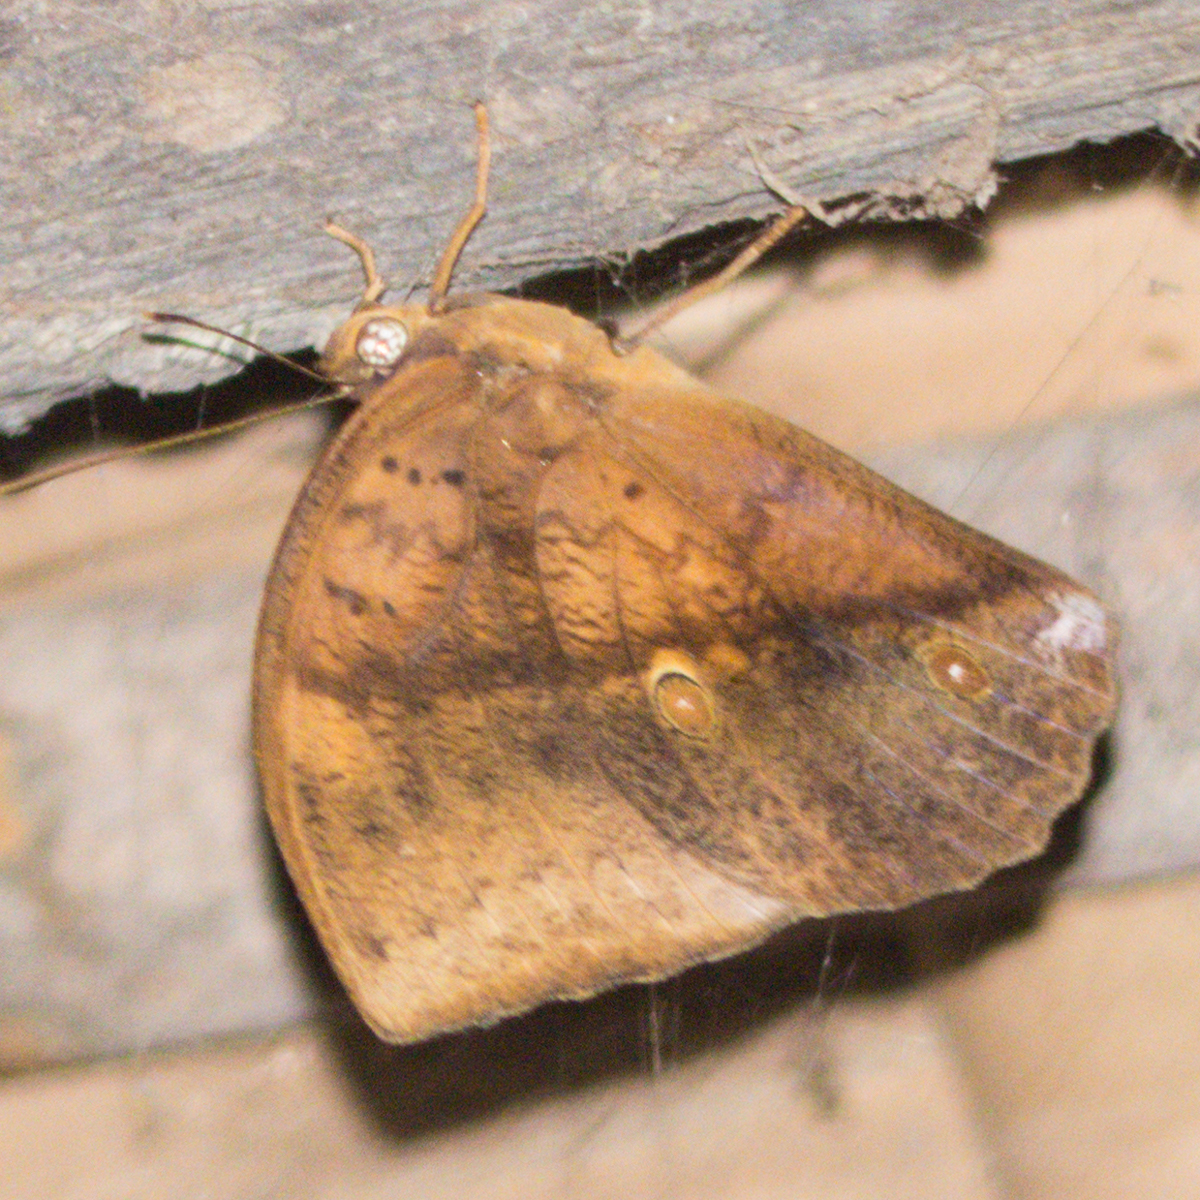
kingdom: Animalia
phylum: Arthropoda
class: Insecta
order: Lepidoptera
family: Nymphalidae
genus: Discophora
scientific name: Discophora timora
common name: Great duffer
